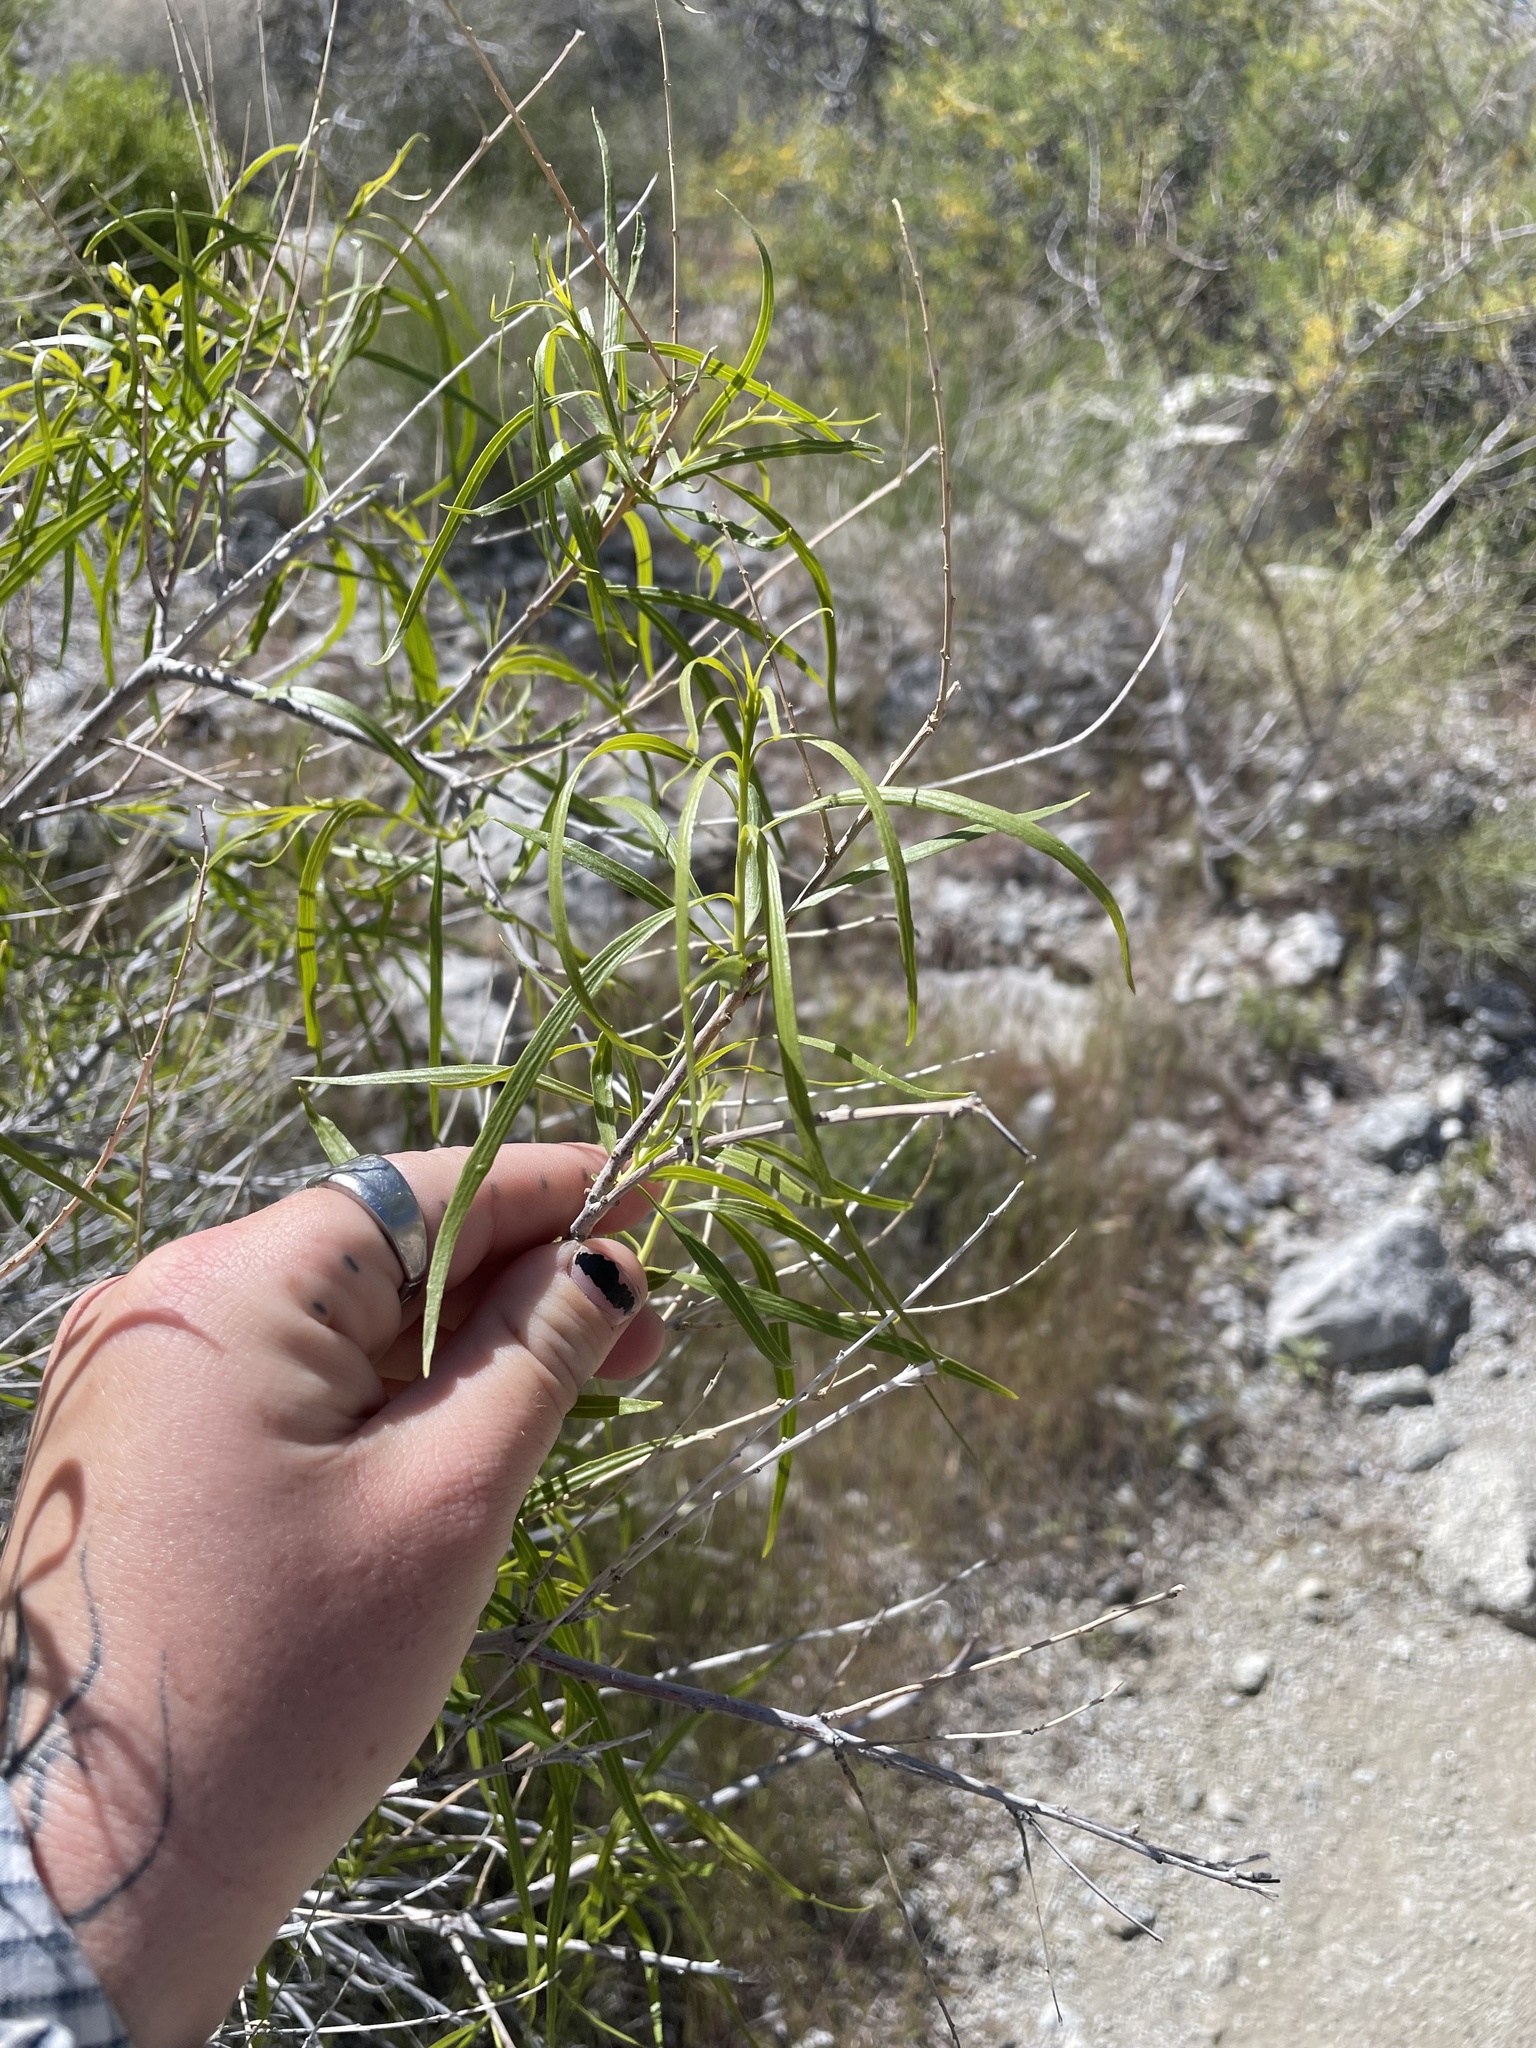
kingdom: Plantae
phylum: Tracheophyta
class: Magnoliopsida
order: Lamiales
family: Bignoniaceae
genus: Chilopsis
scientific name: Chilopsis linearis
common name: Desert-willow
